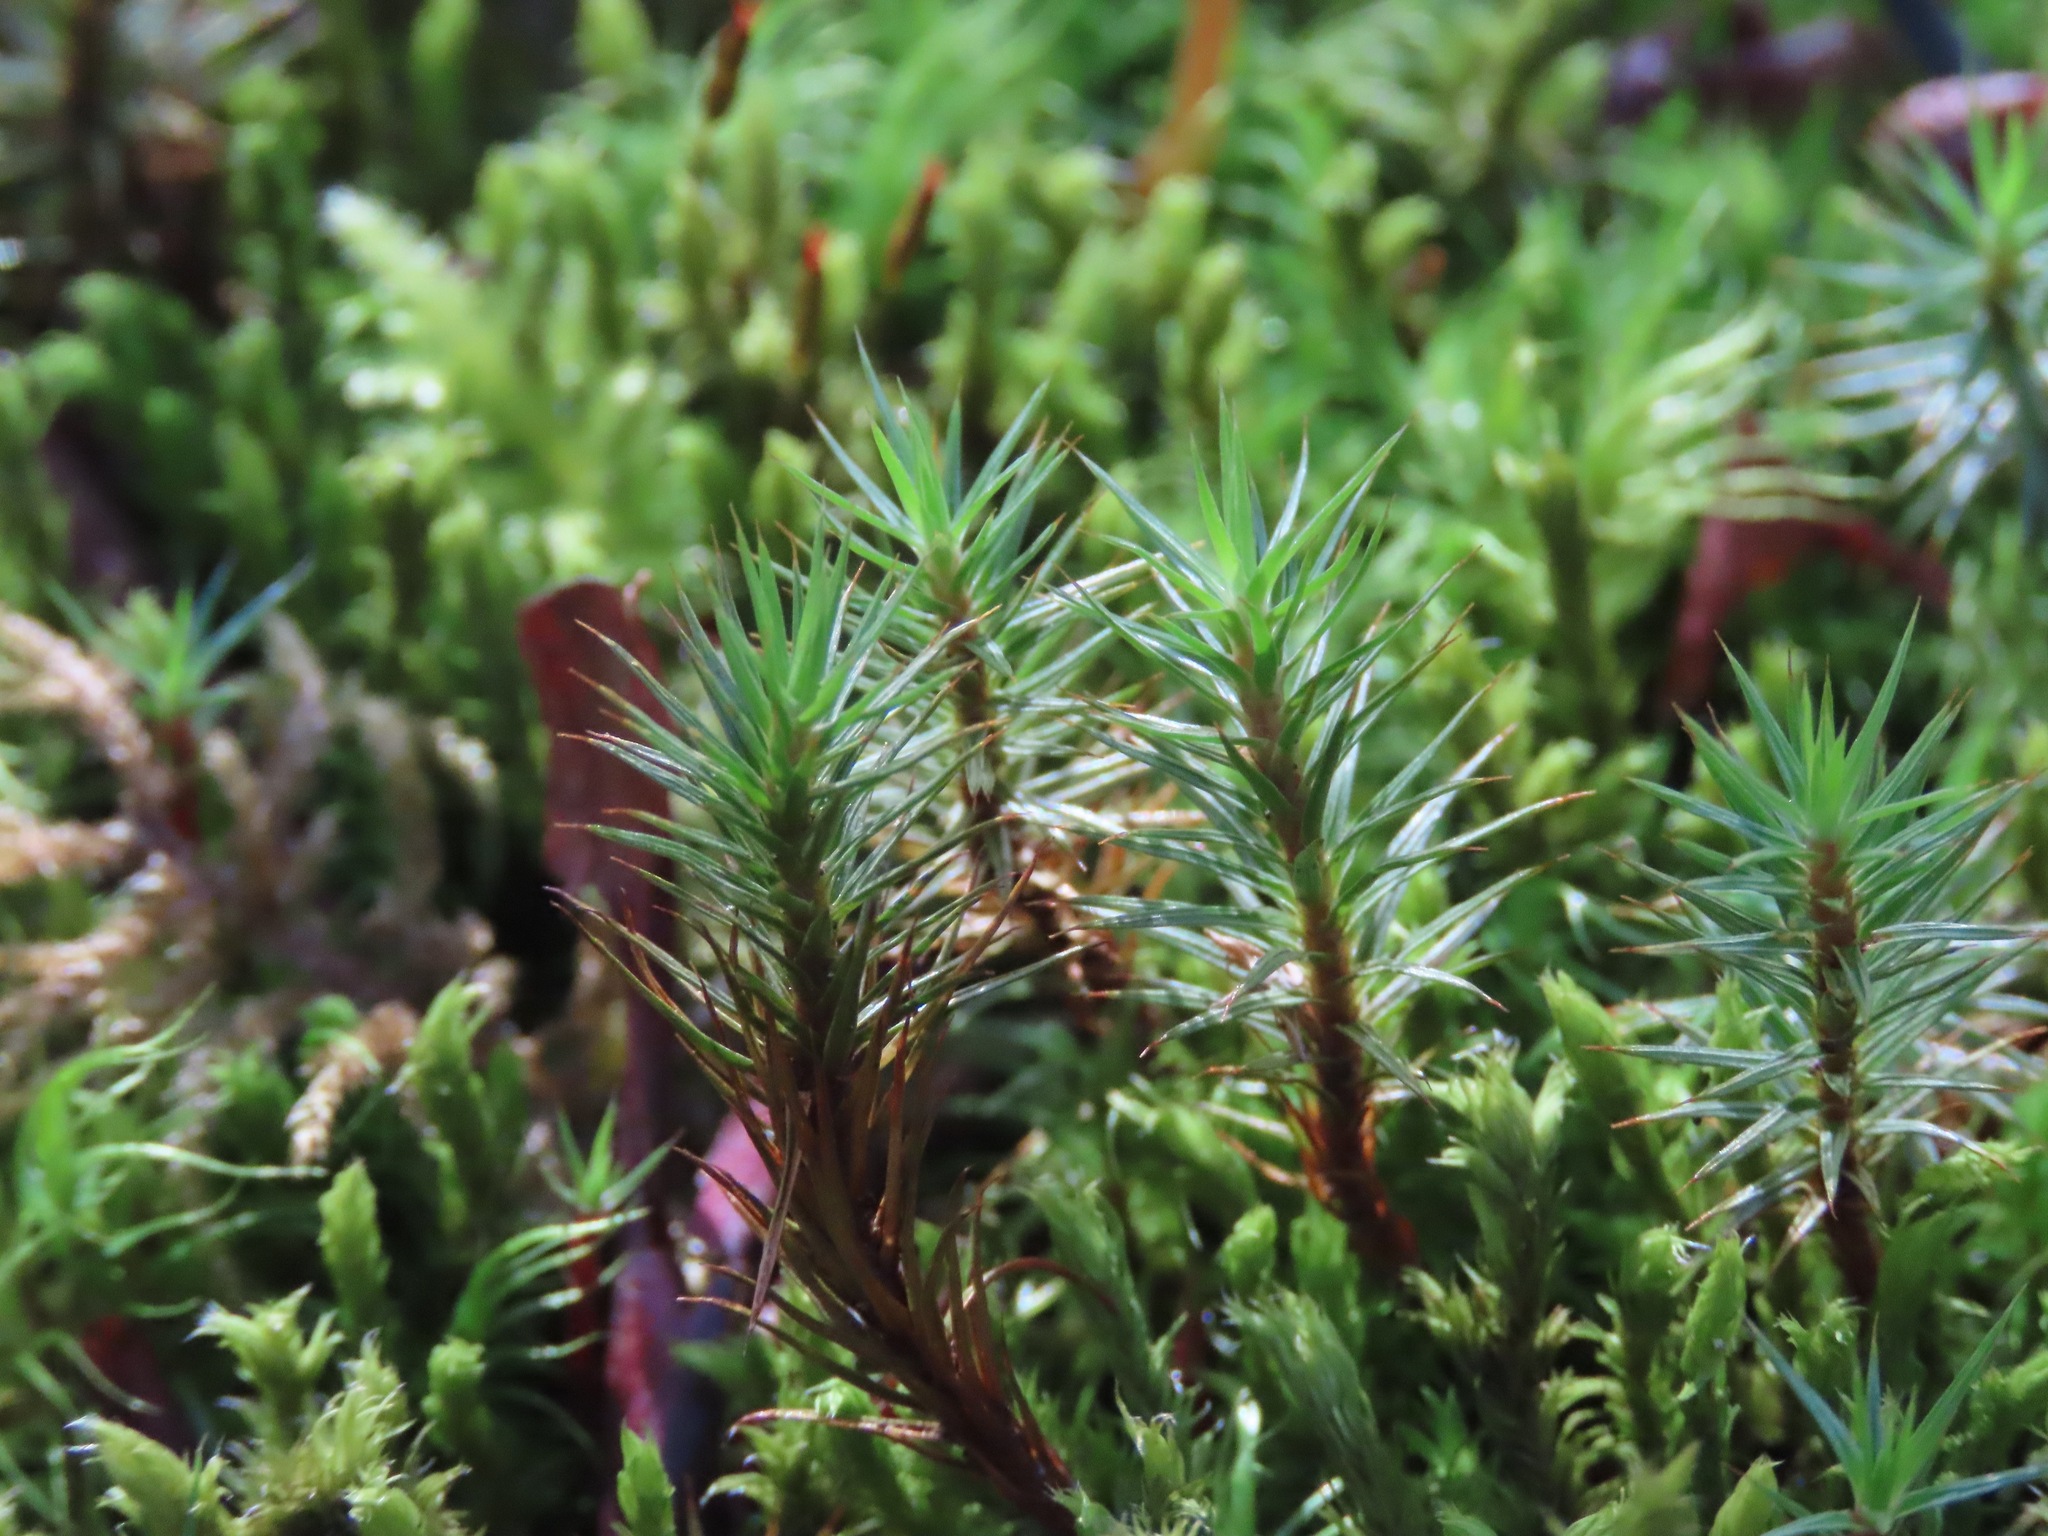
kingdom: Plantae
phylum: Bryophyta
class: Polytrichopsida
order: Polytrichales
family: Polytrichaceae
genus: Polytrichum
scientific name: Polytrichum juniperinum
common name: Juniper haircap moss
